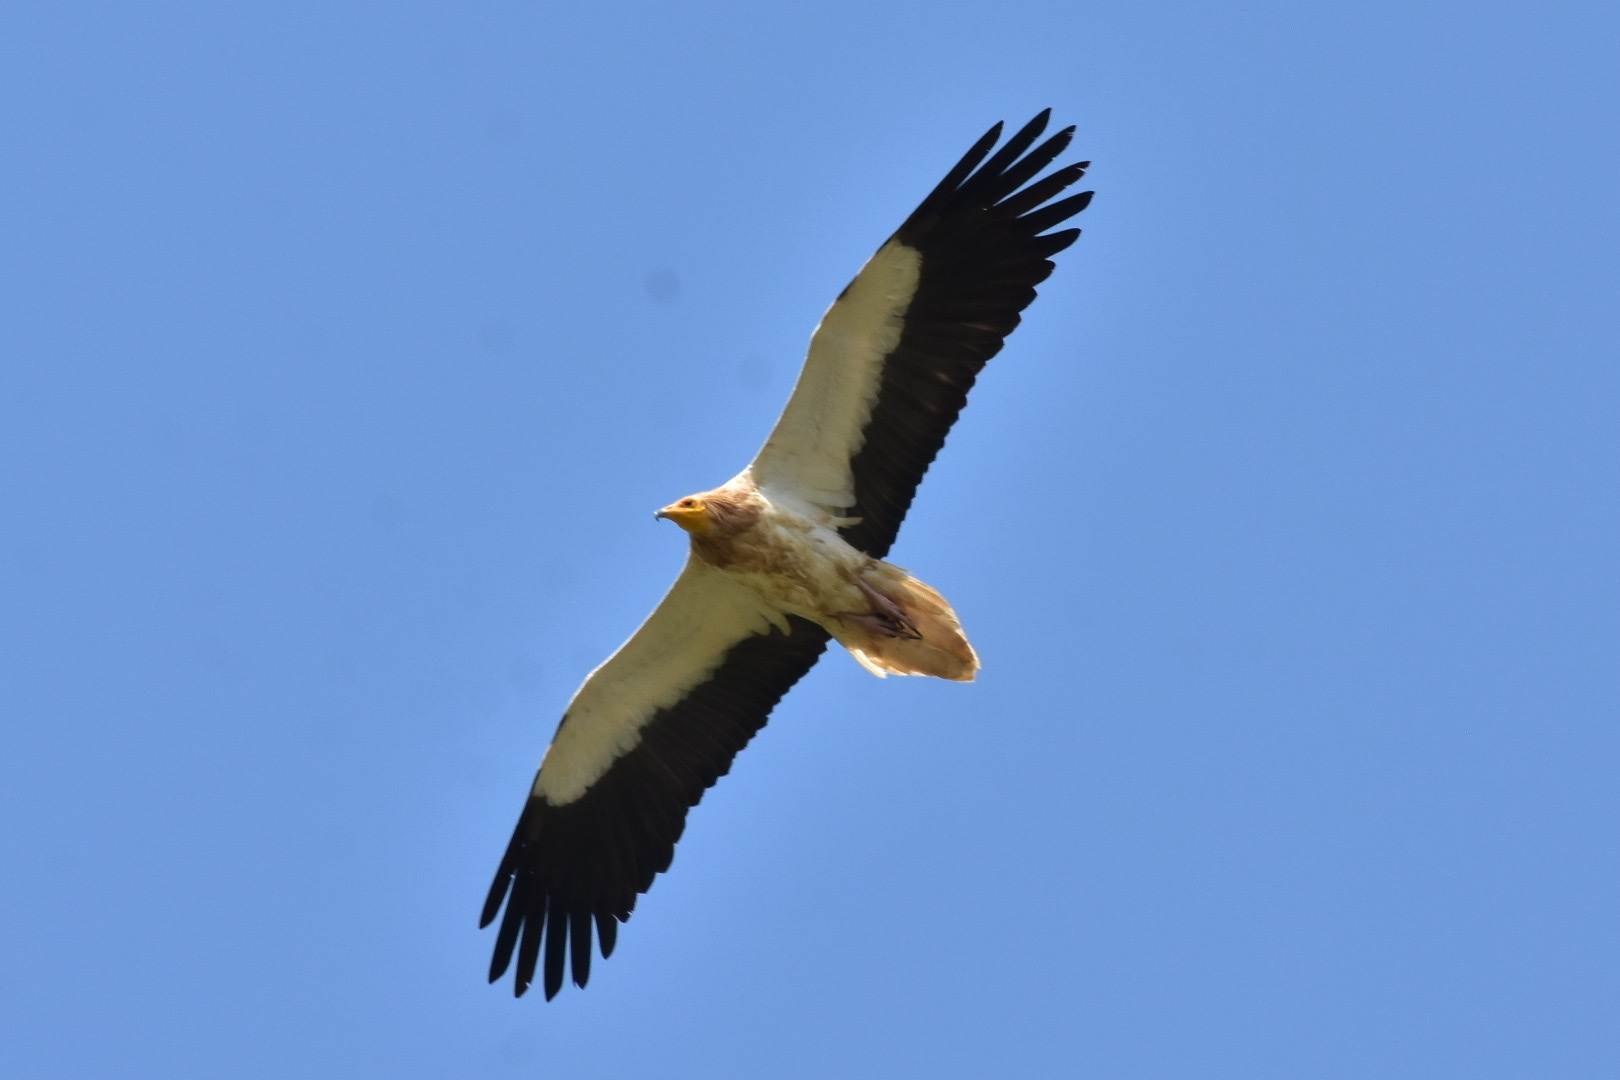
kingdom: Animalia
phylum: Chordata
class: Aves
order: Accipitriformes
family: Accipitridae
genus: Neophron
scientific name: Neophron percnopterus
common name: Egyptian vulture
